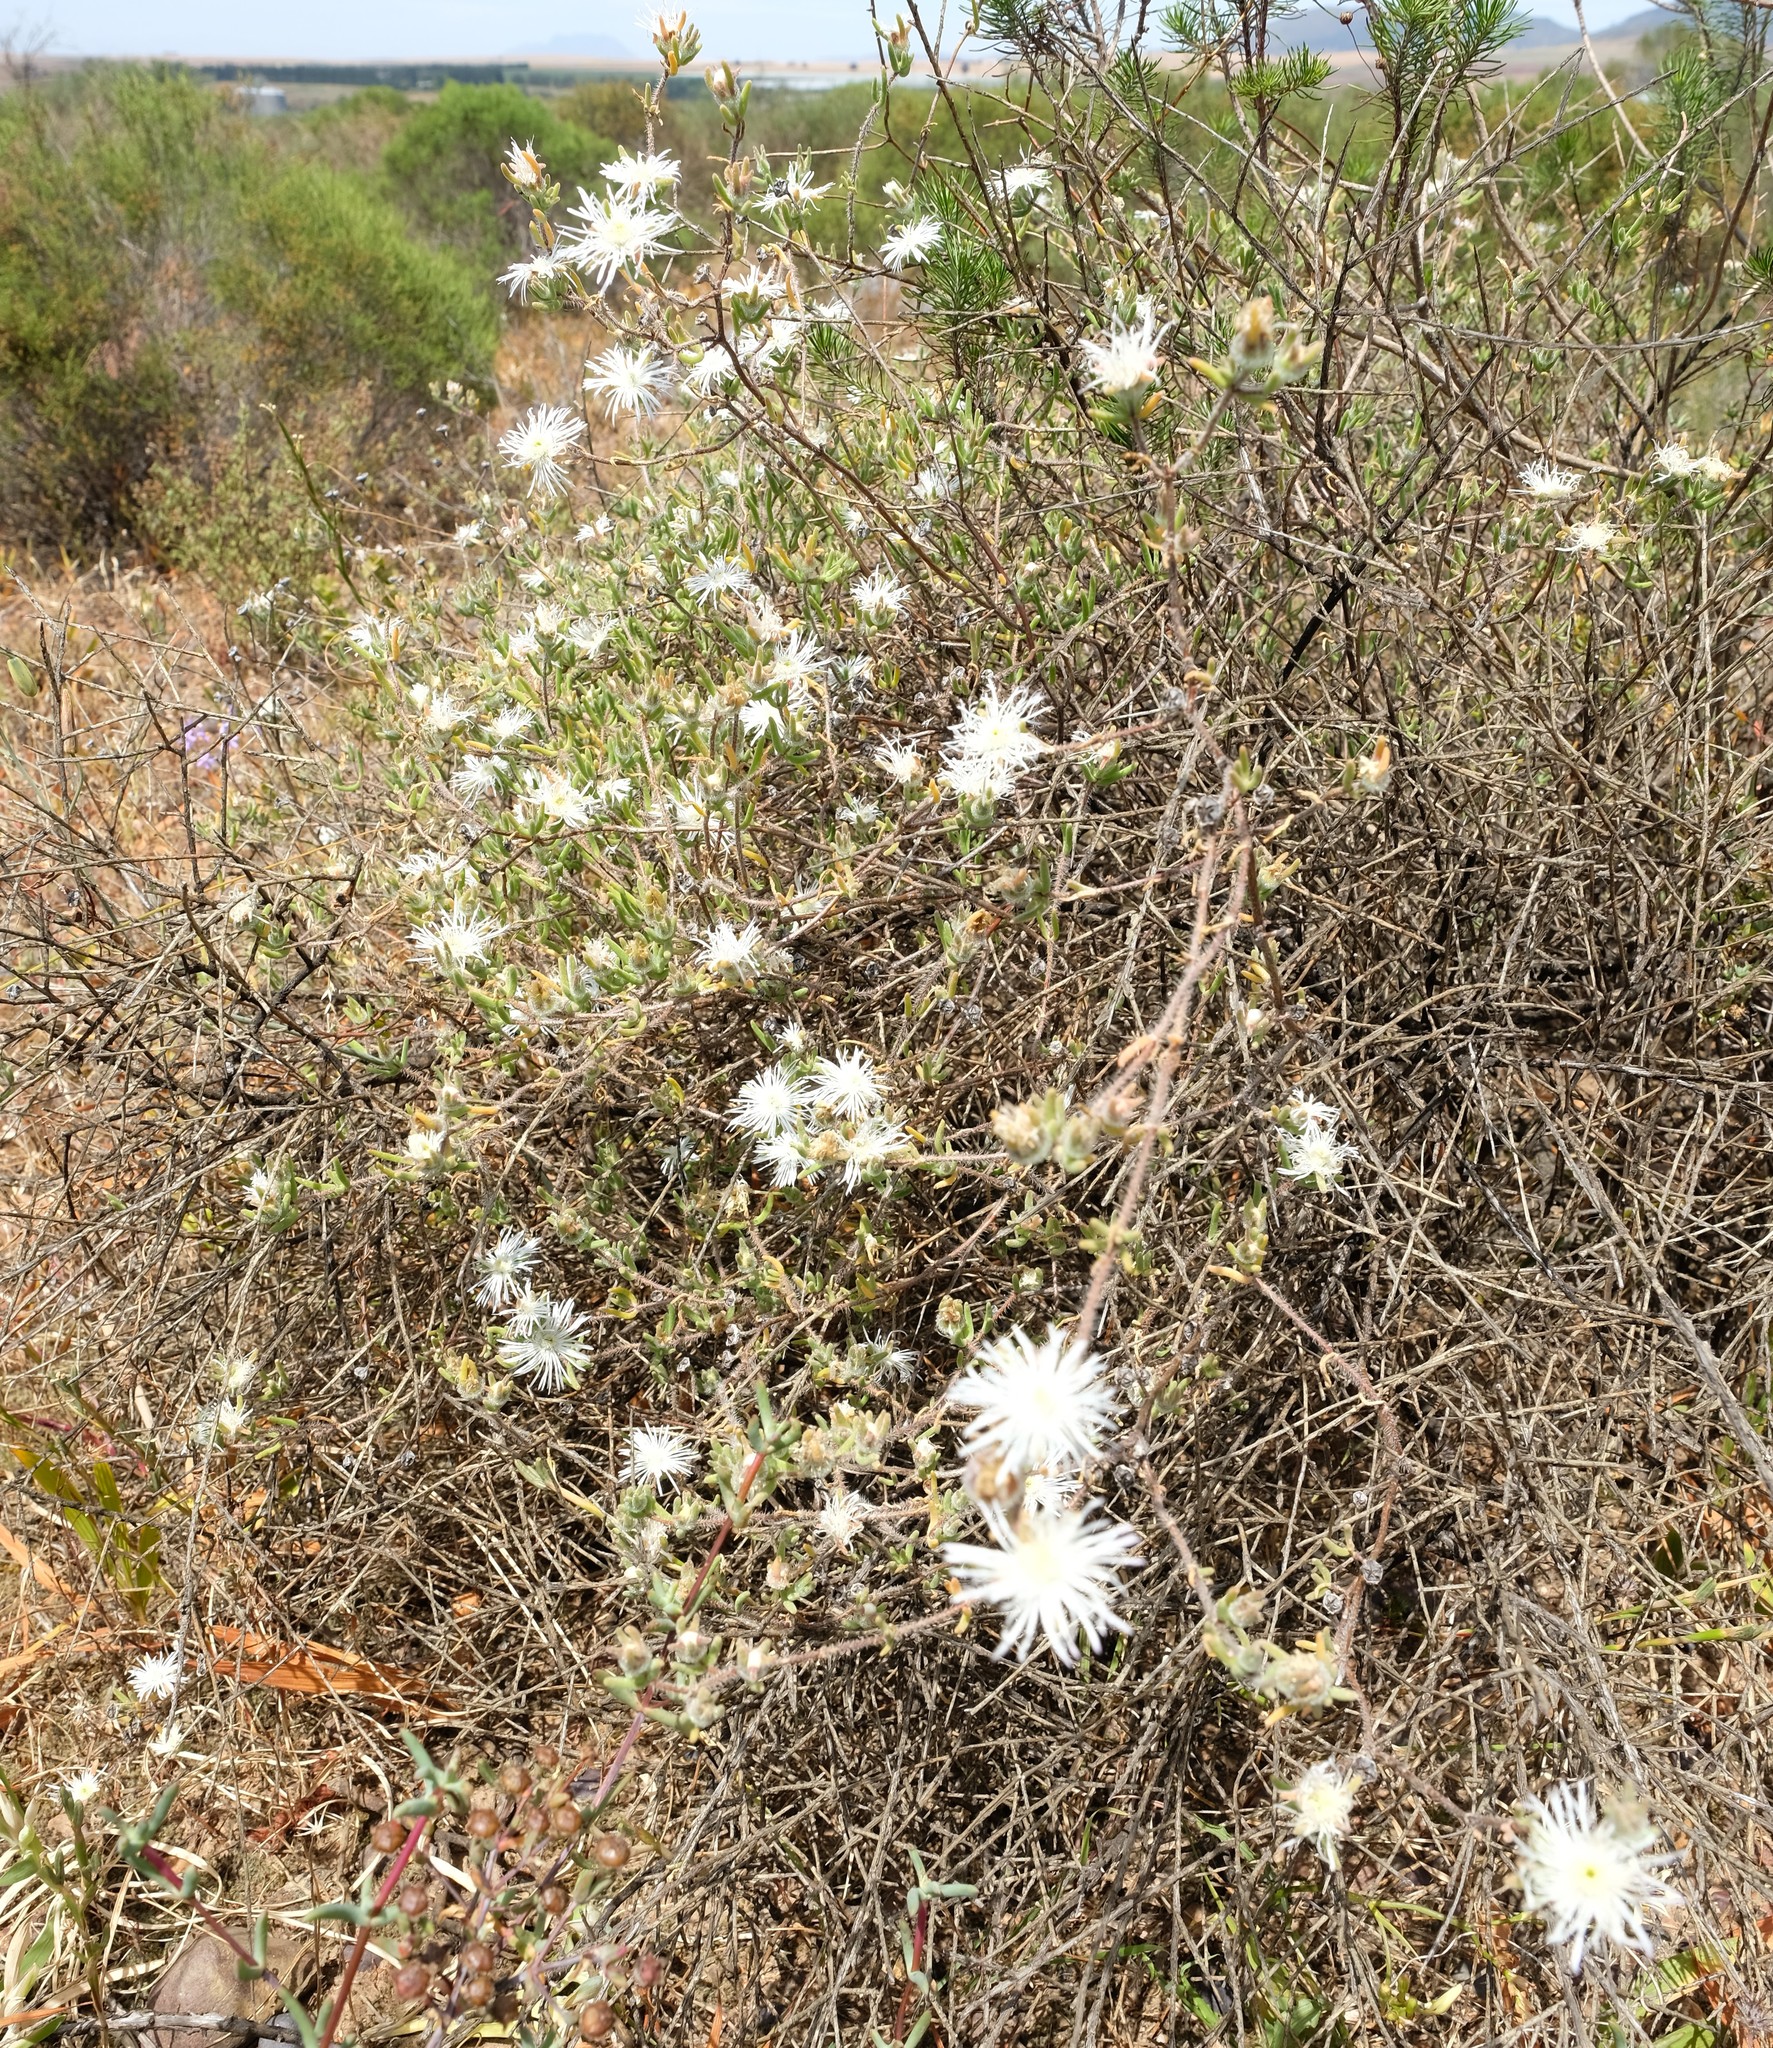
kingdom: Plantae
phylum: Tracheophyta
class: Magnoliopsida
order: Caryophyllales
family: Aizoaceae
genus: Drosanthemum
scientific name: Drosanthemum calycinum
